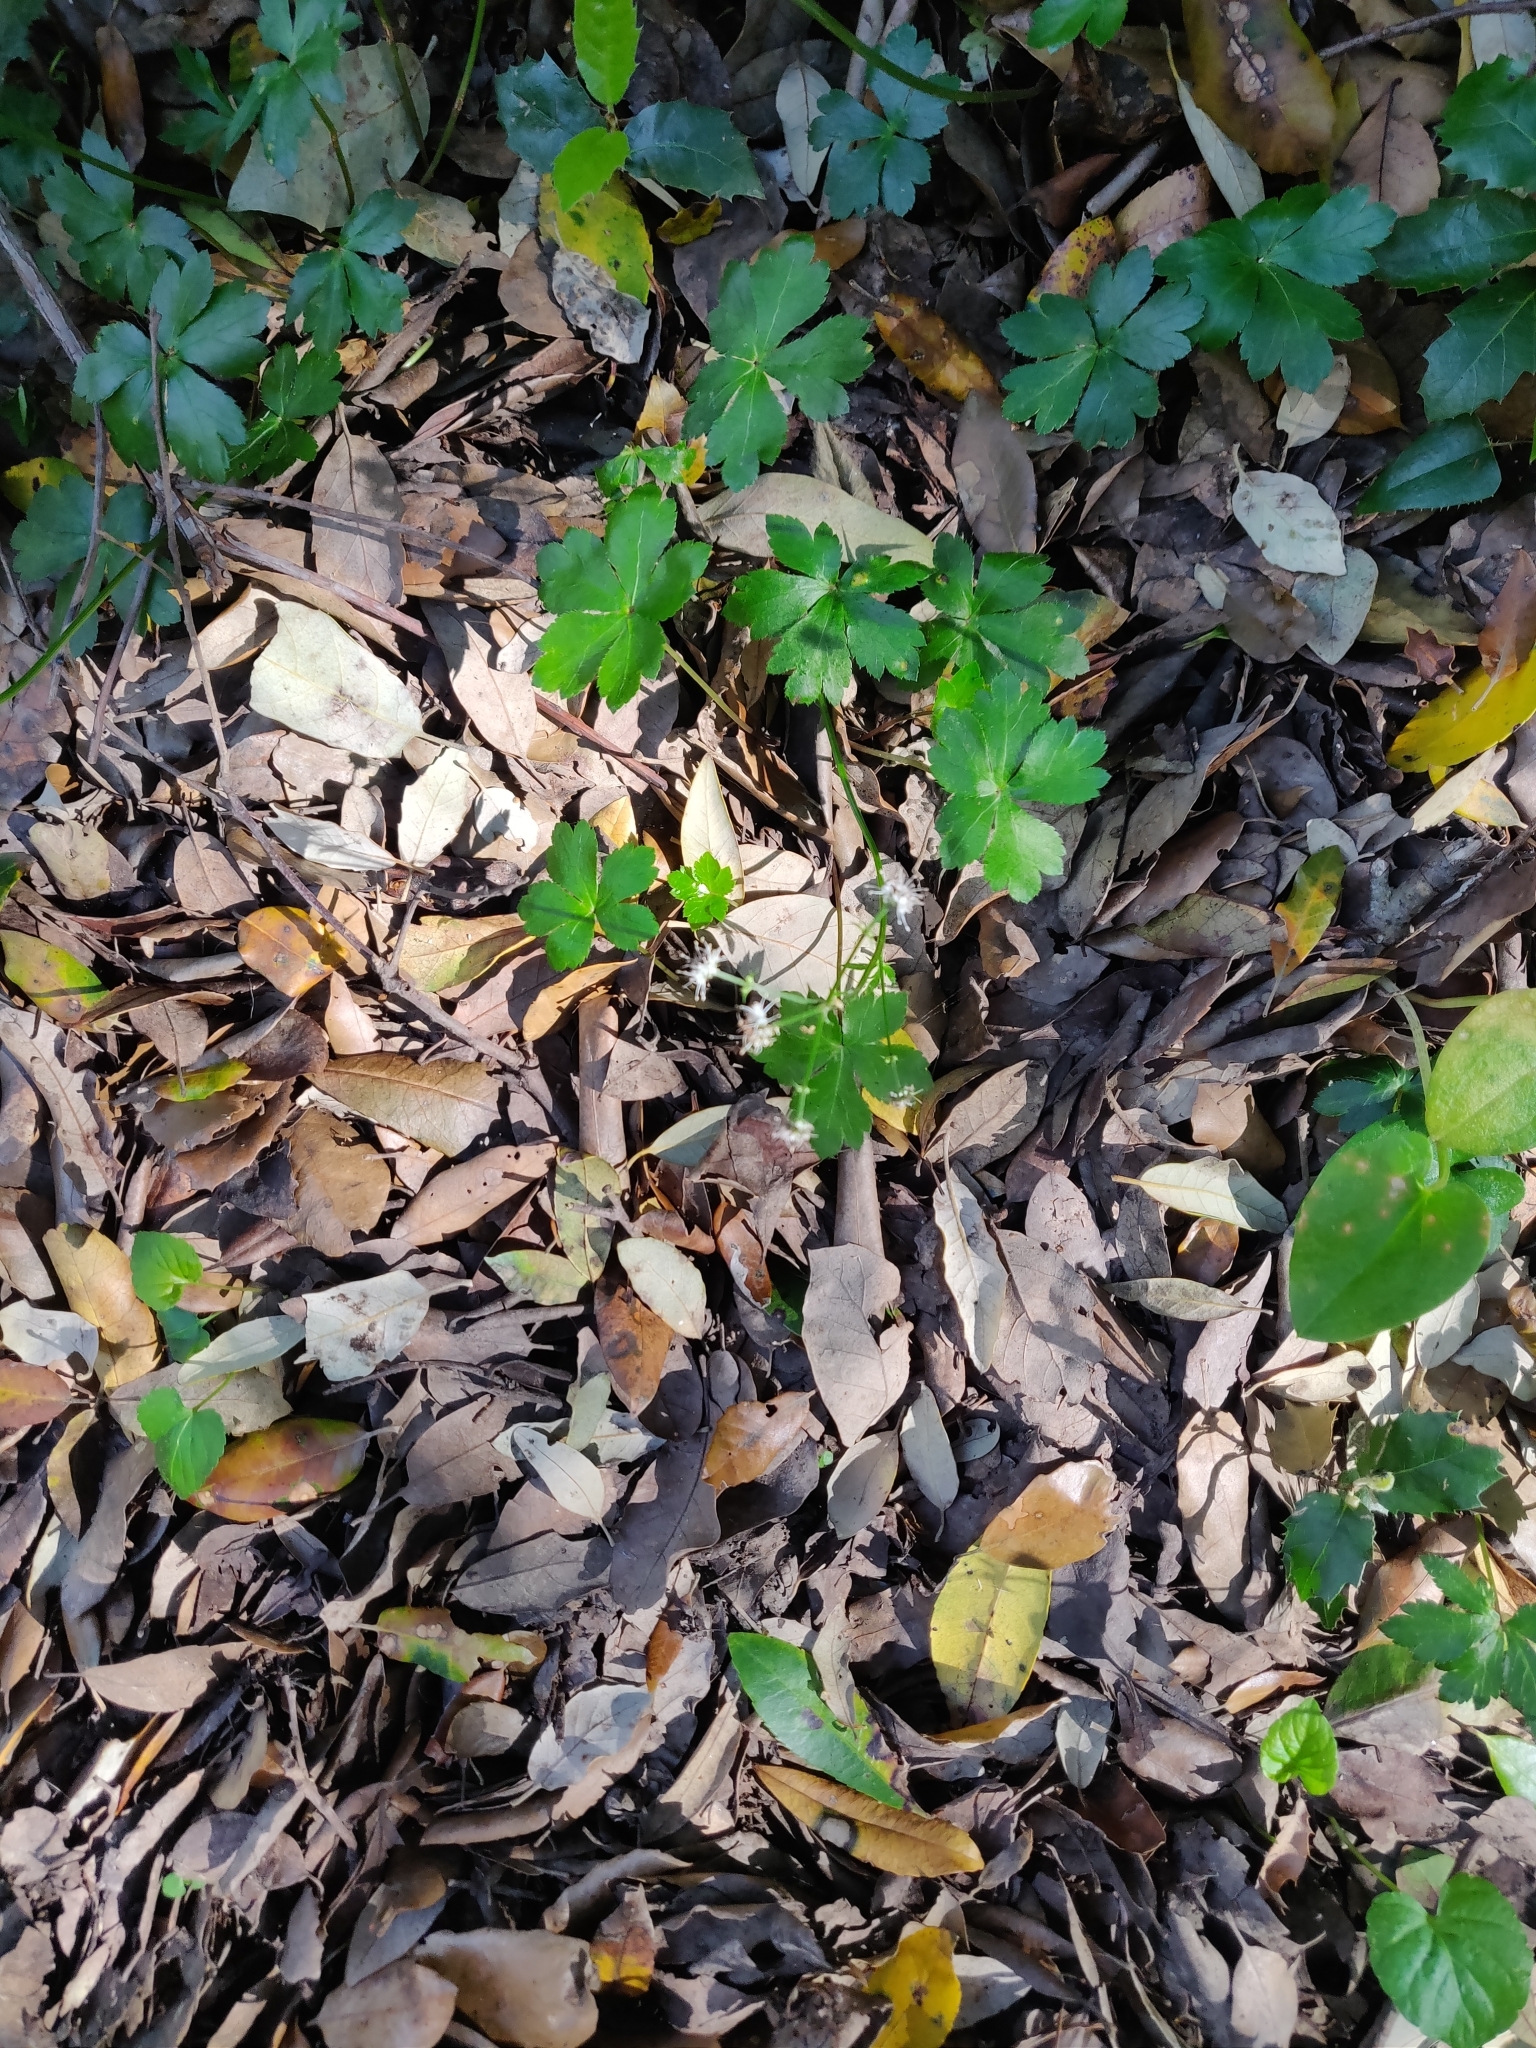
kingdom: Plantae
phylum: Tracheophyta
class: Magnoliopsida
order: Apiales
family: Apiaceae
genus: Sanicula
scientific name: Sanicula europaea
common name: Sanicle
